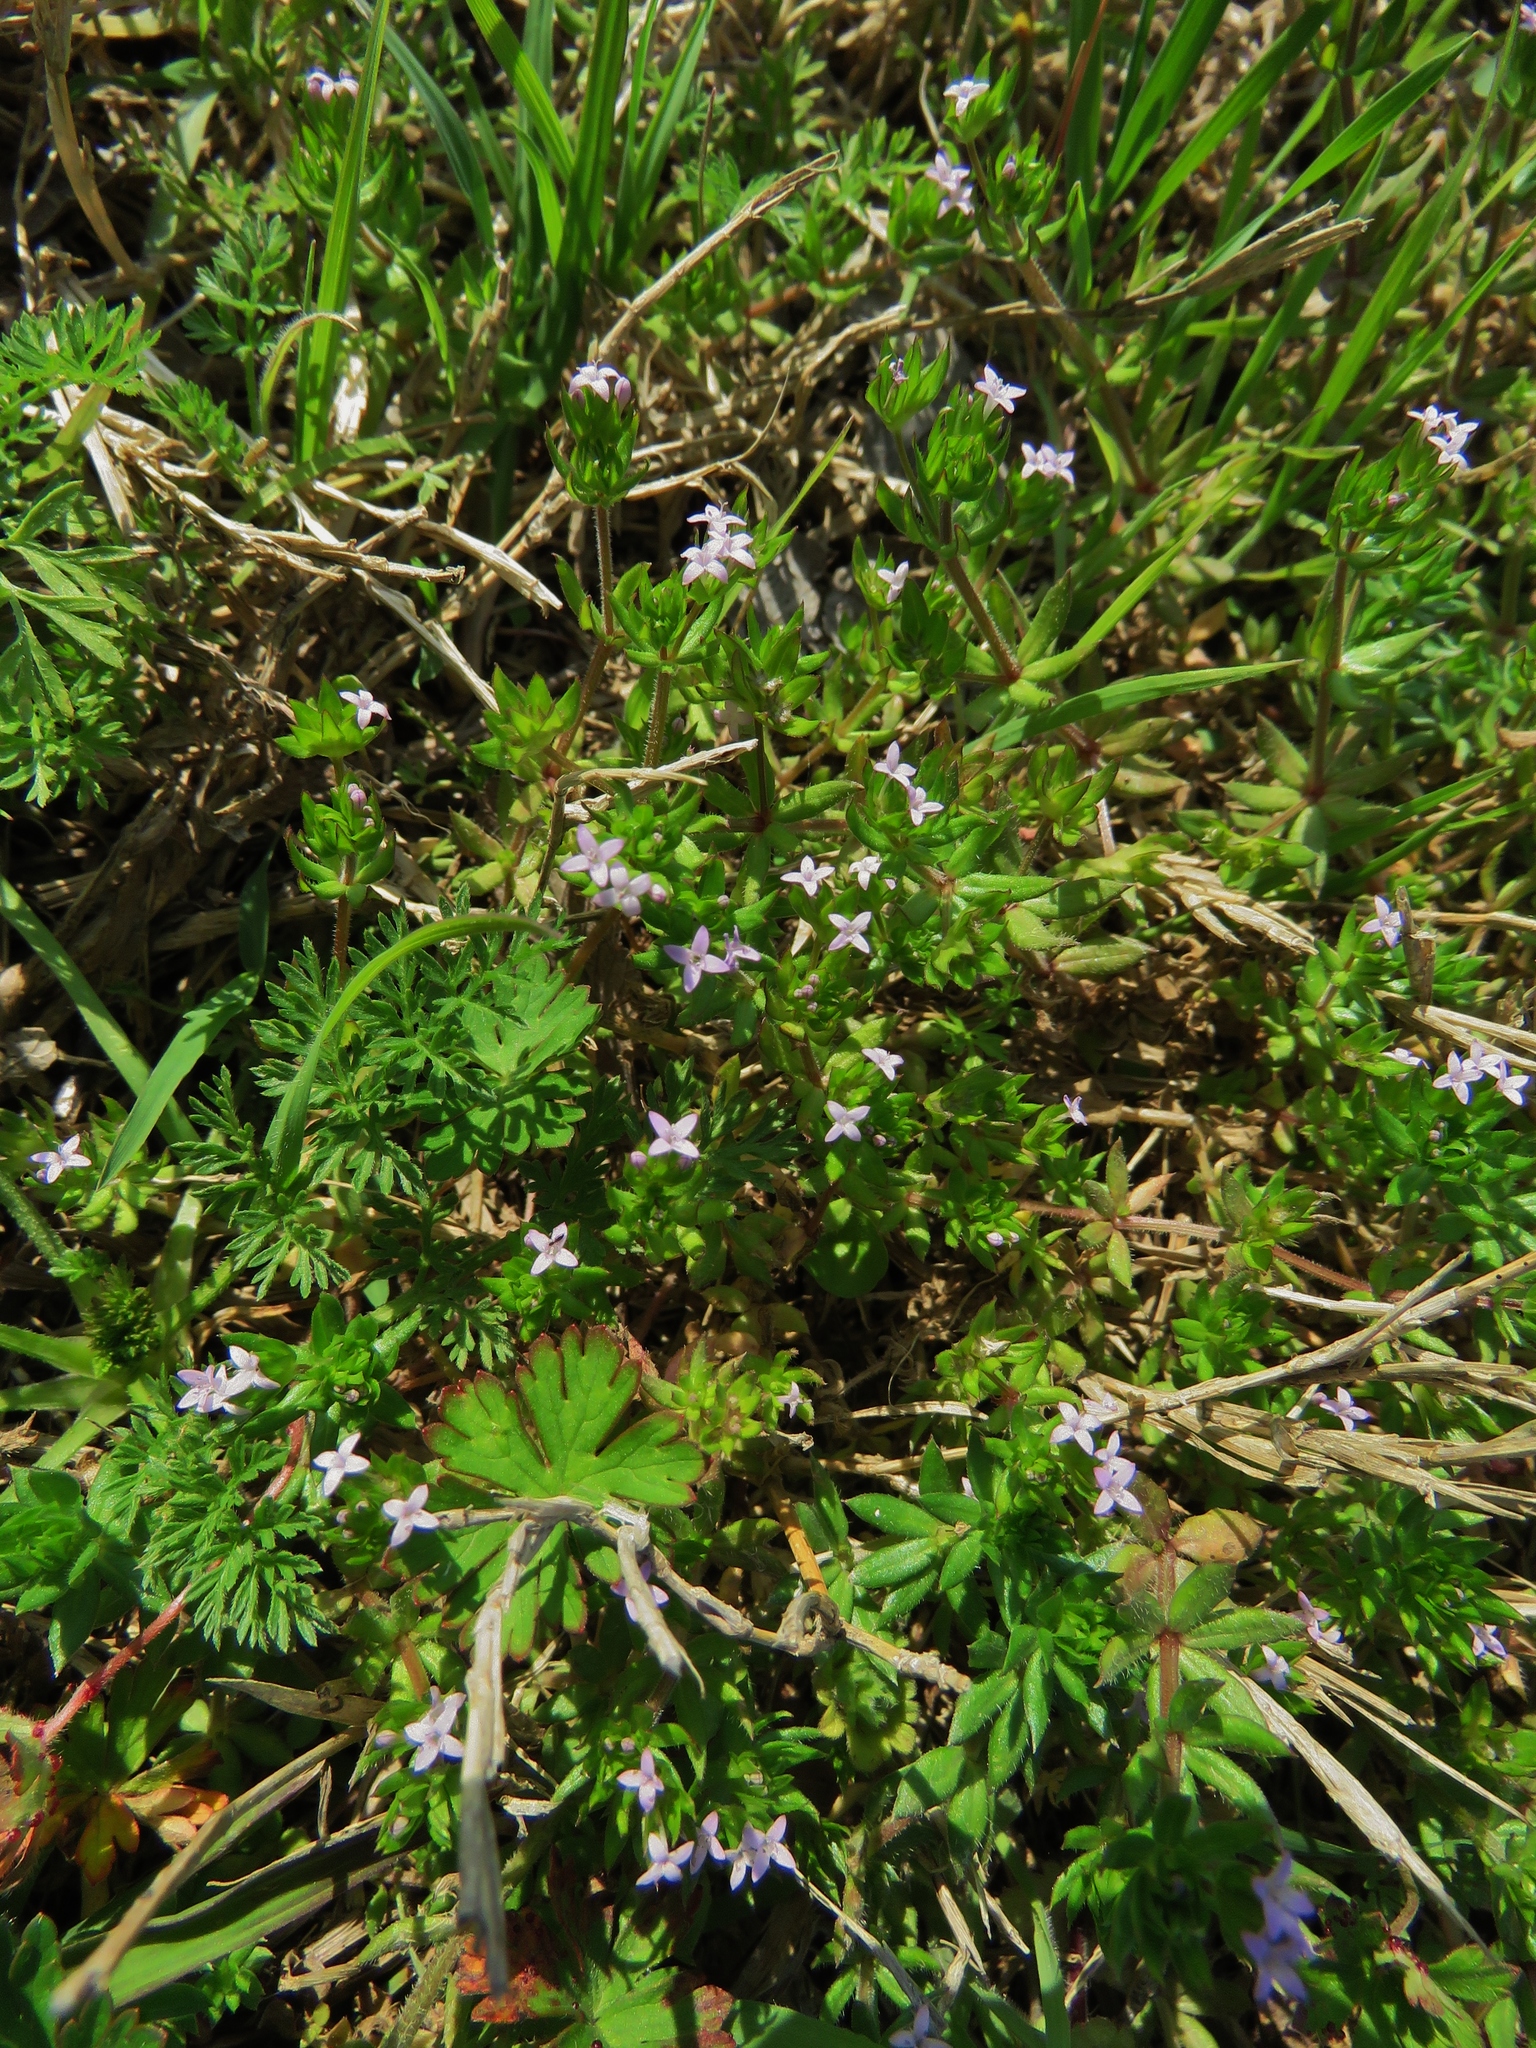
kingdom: Plantae
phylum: Tracheophyta
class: Magnoliopsida
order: Gentianales
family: Rubiaceae
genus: Sherardia
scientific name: Sherardia arvensis
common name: Field madder
